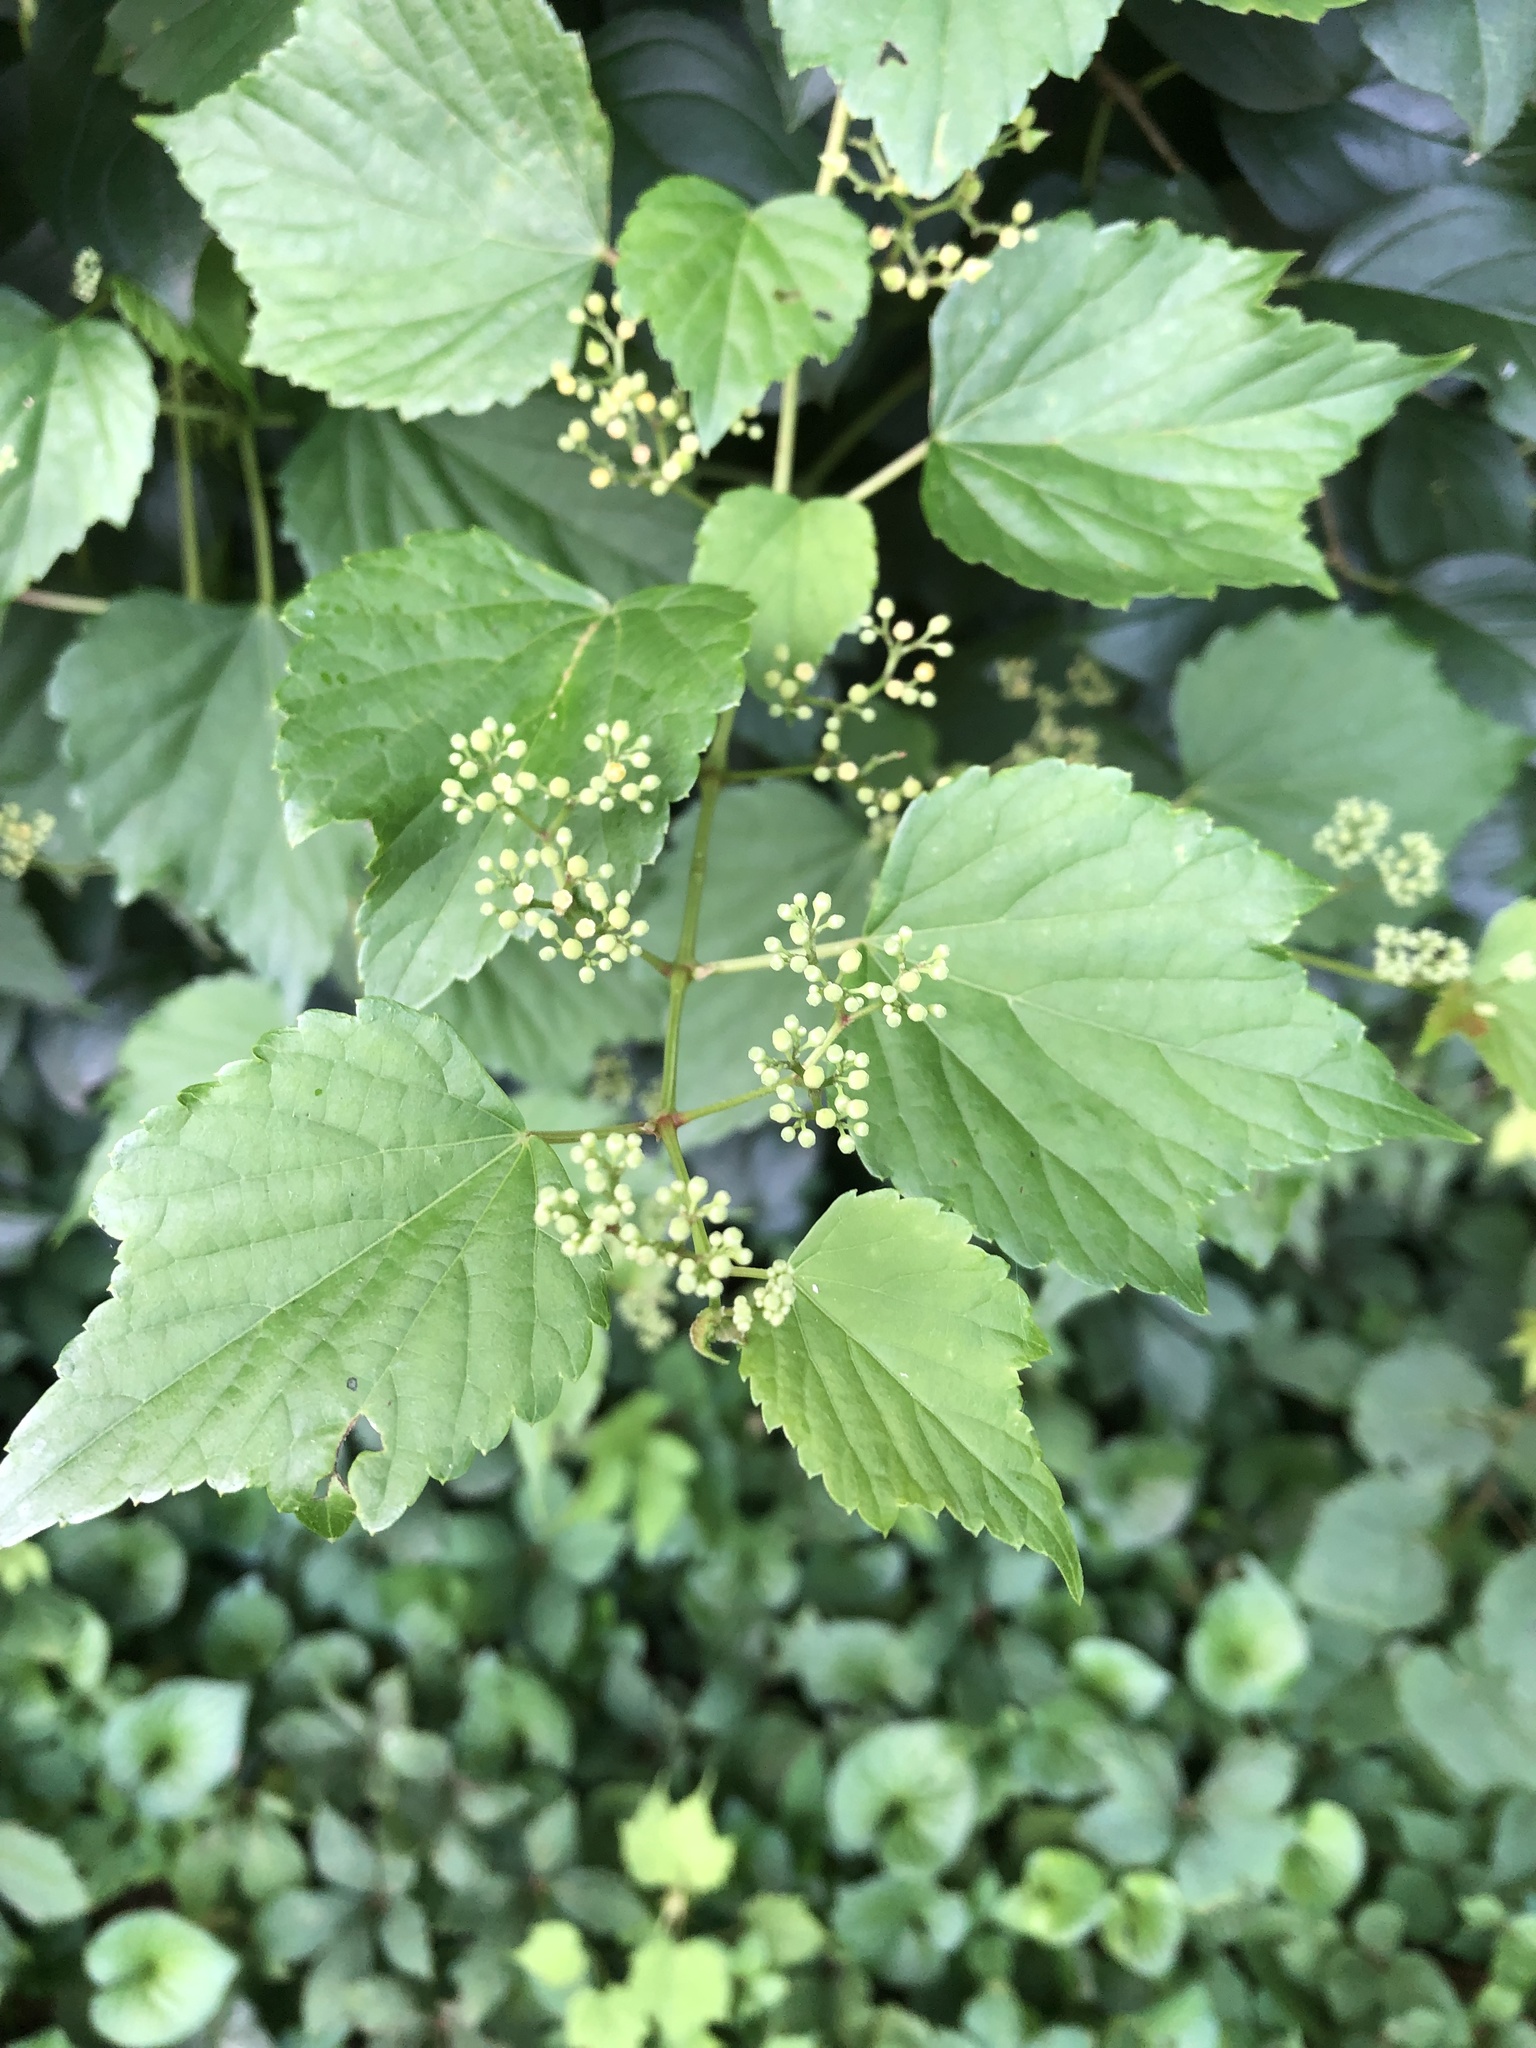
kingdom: Plantae
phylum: Tracheophyta
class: Magnoliopsida
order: Vitales
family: Vitaceae
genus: Ampelopsis
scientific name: Ampelopsis glandulosa
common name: Amur peppervine
